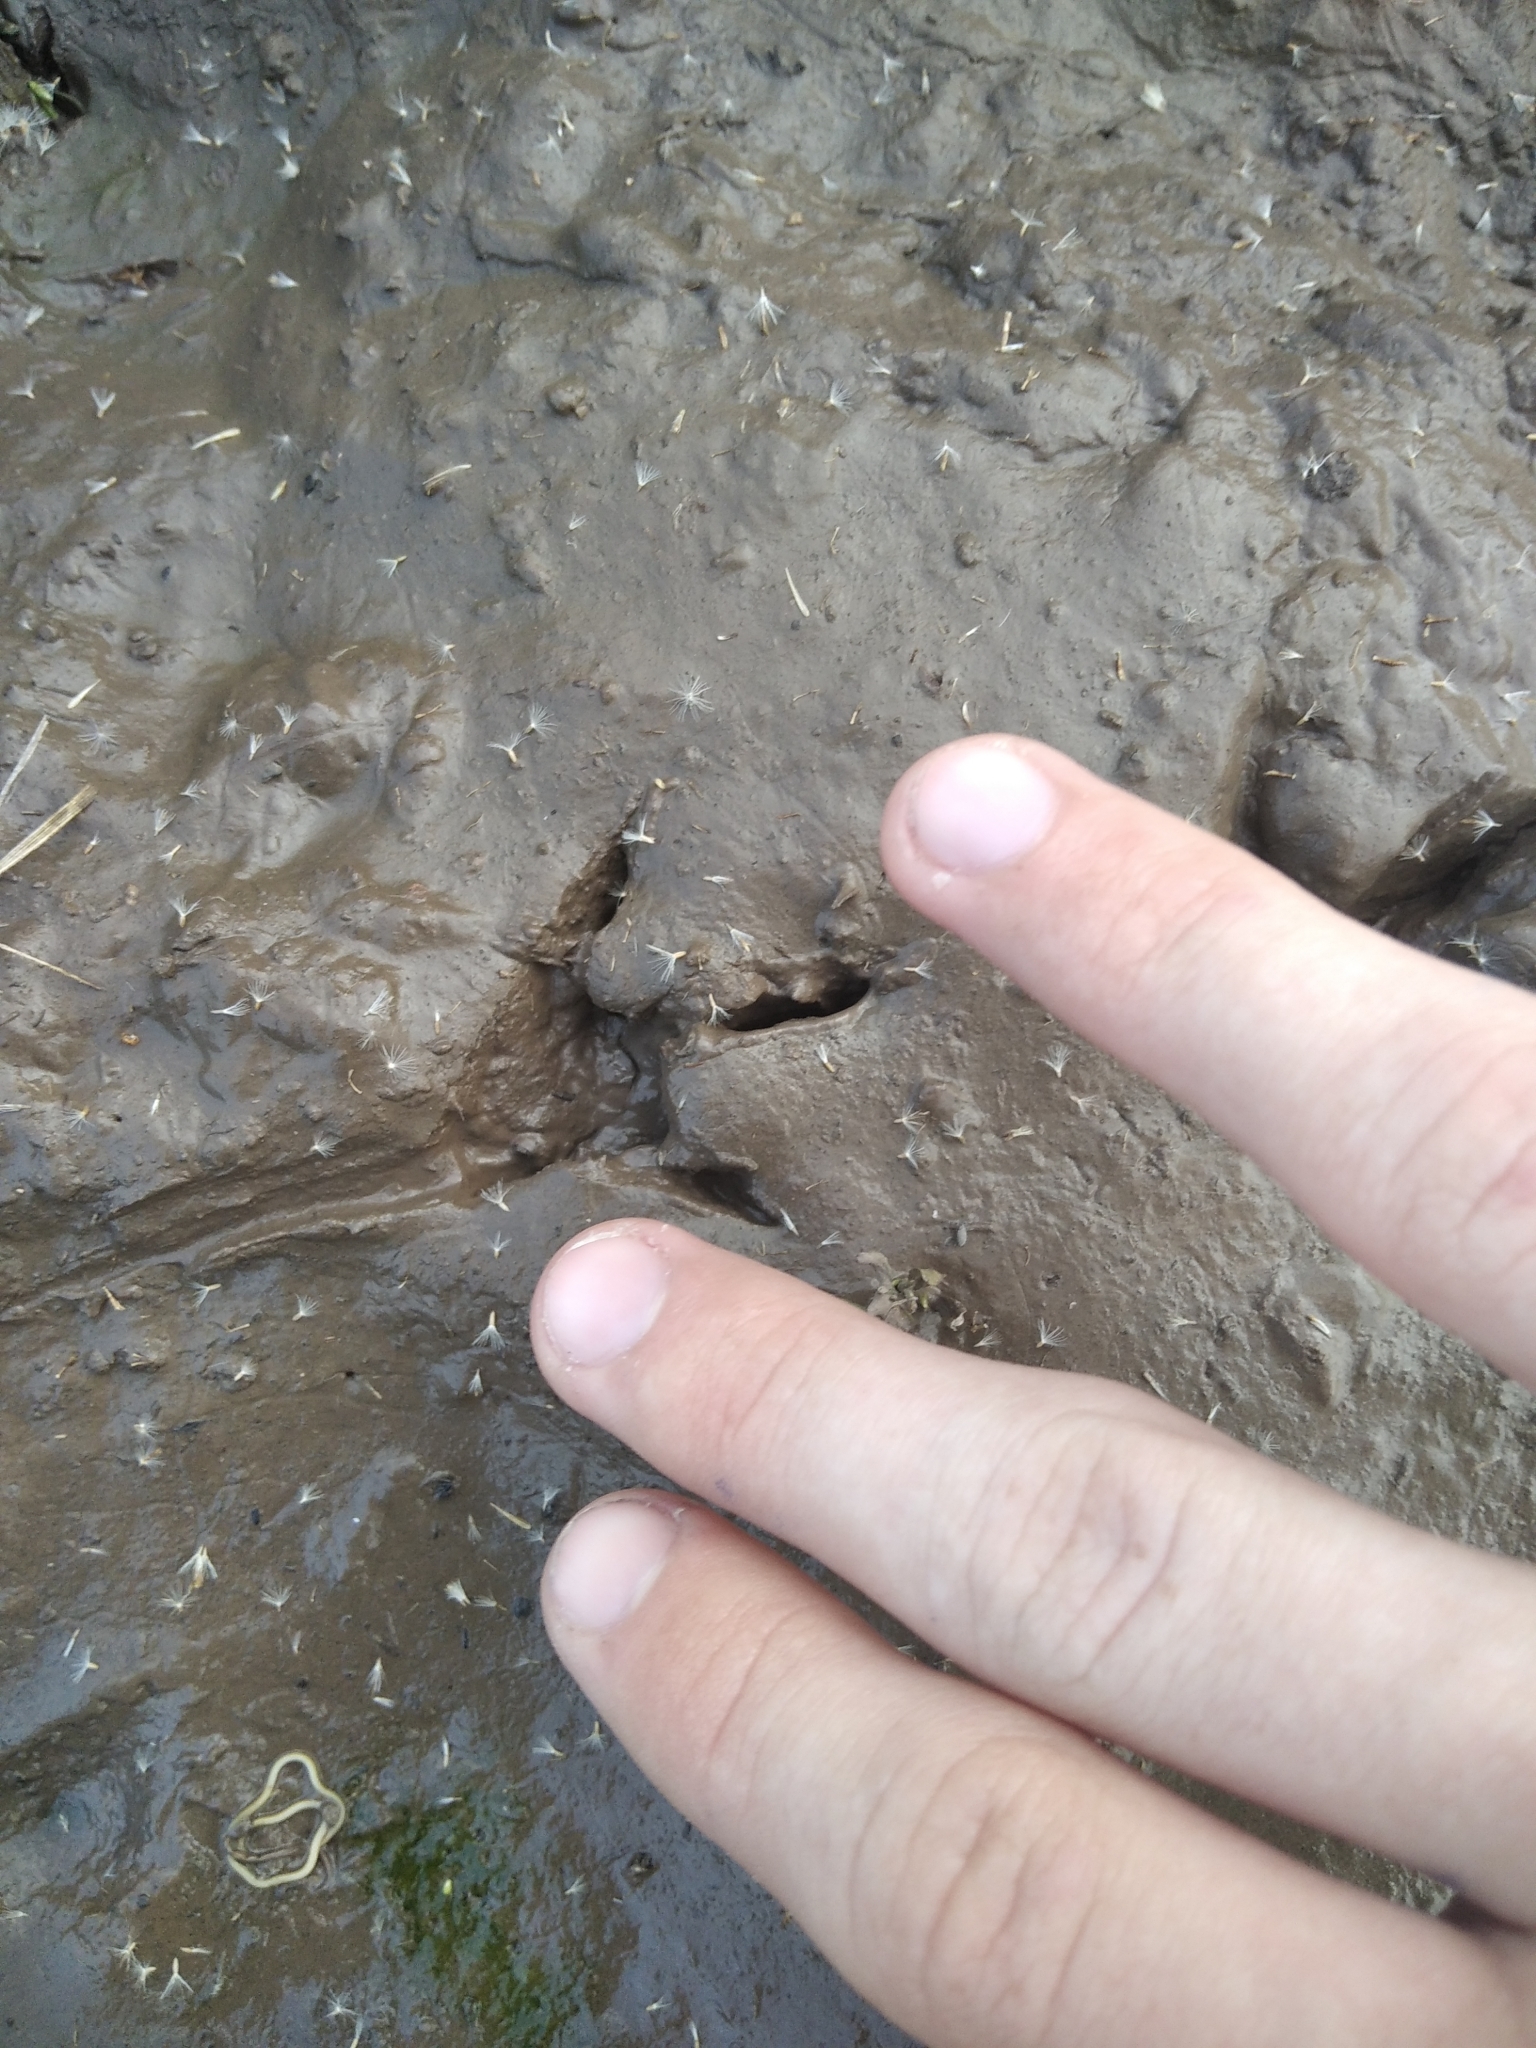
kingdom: Animalia
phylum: Chordata
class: Aves
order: Galliformes
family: Phasianidae
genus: Coturnix
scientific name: Coturnix coturnix
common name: Common quail
